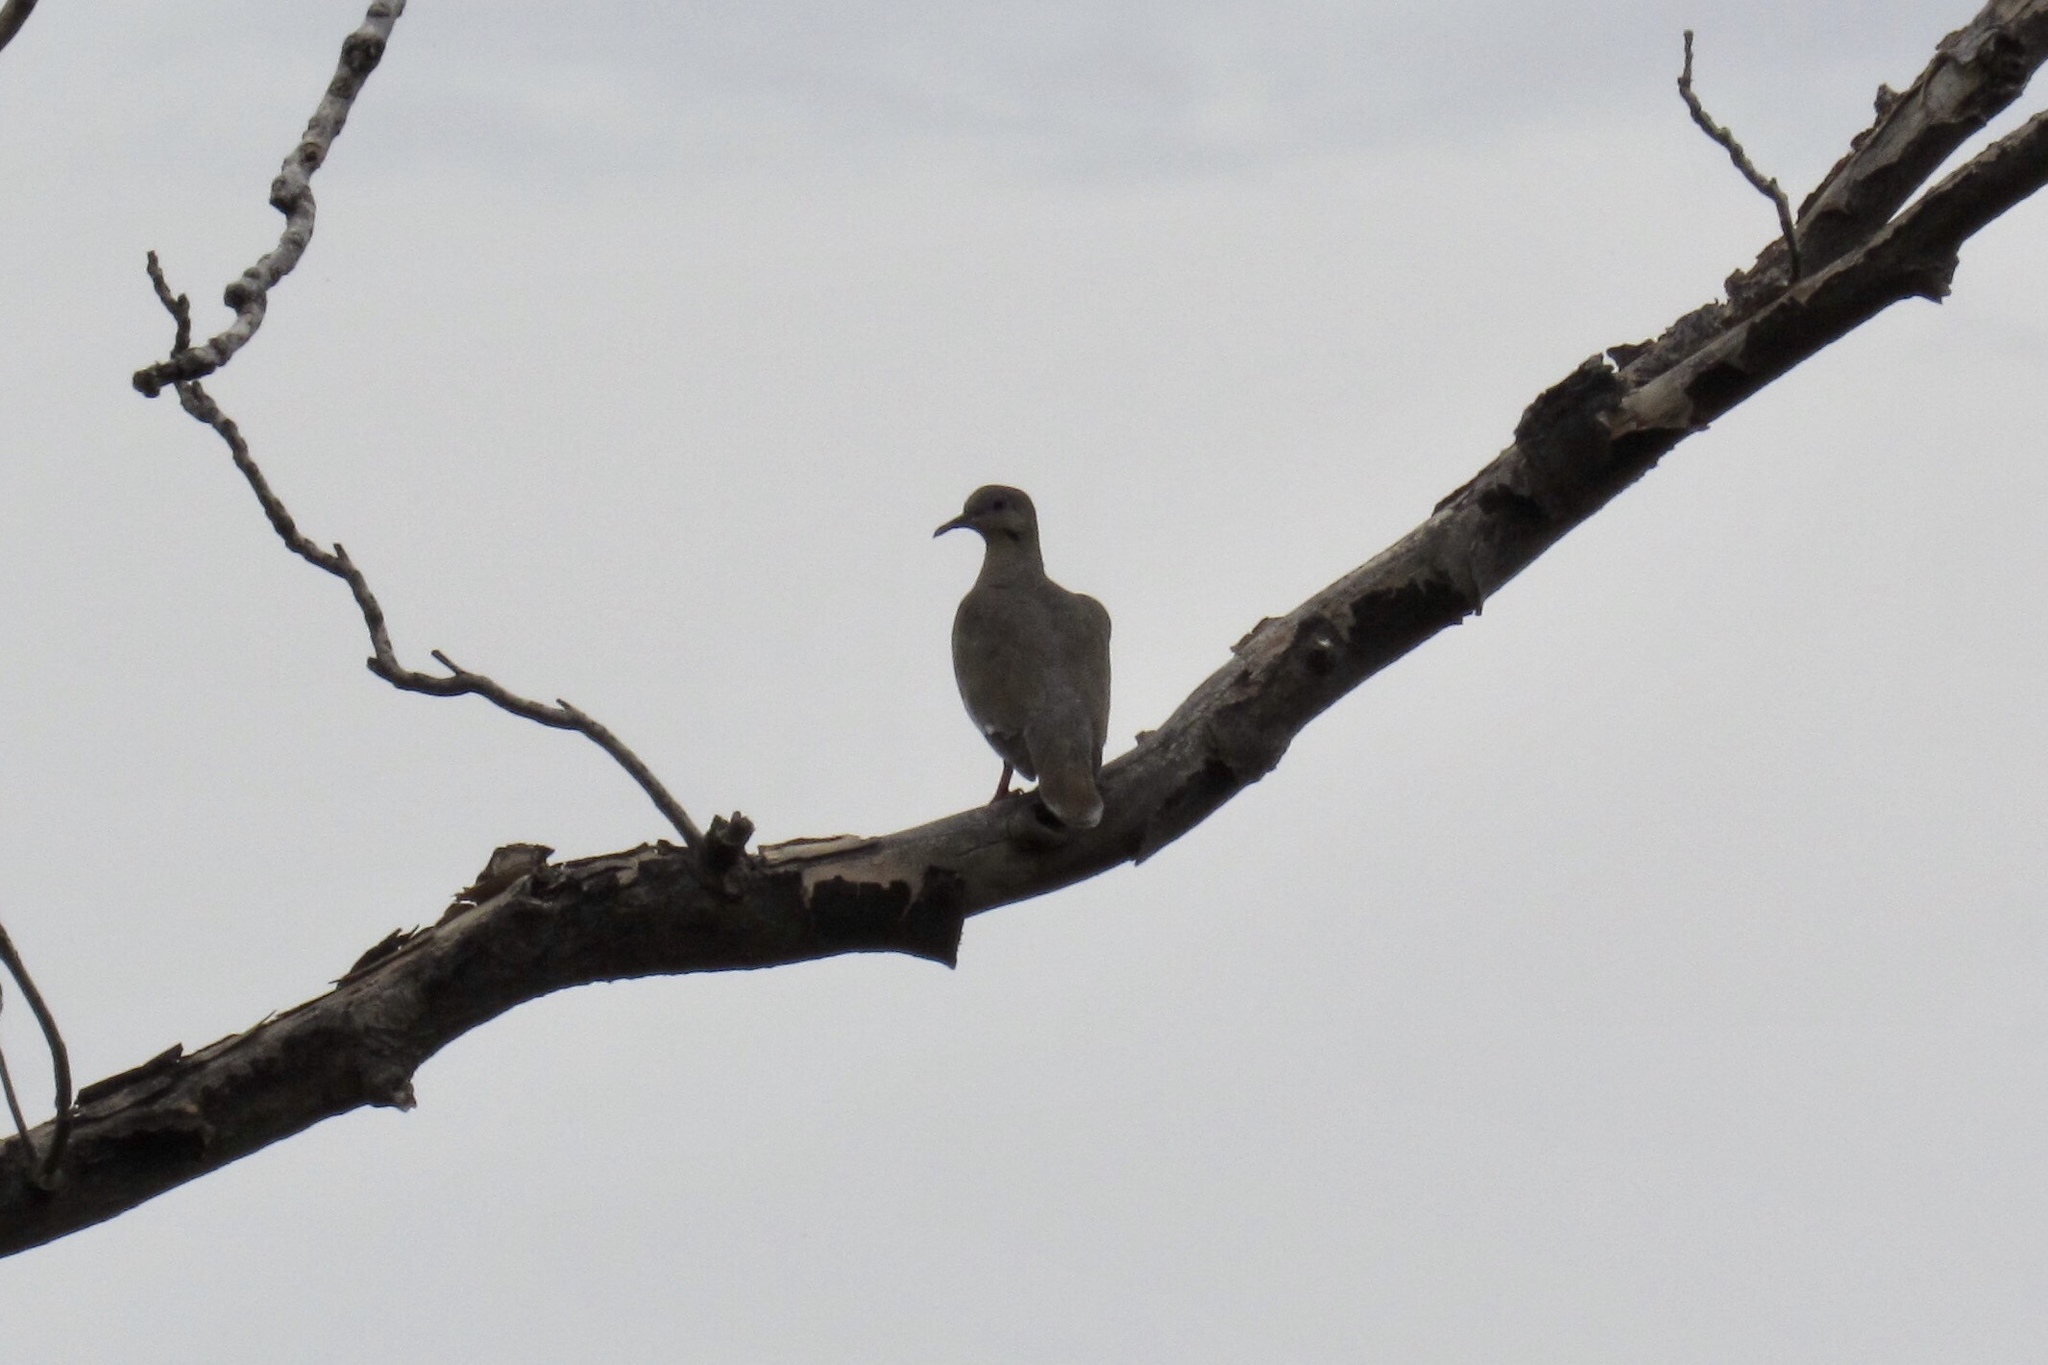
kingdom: Animalia
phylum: Chordata
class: Aves
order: Columbiformes
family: Columbidae
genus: Zenaida
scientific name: Zenaida asiatica
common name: White-winged dove
